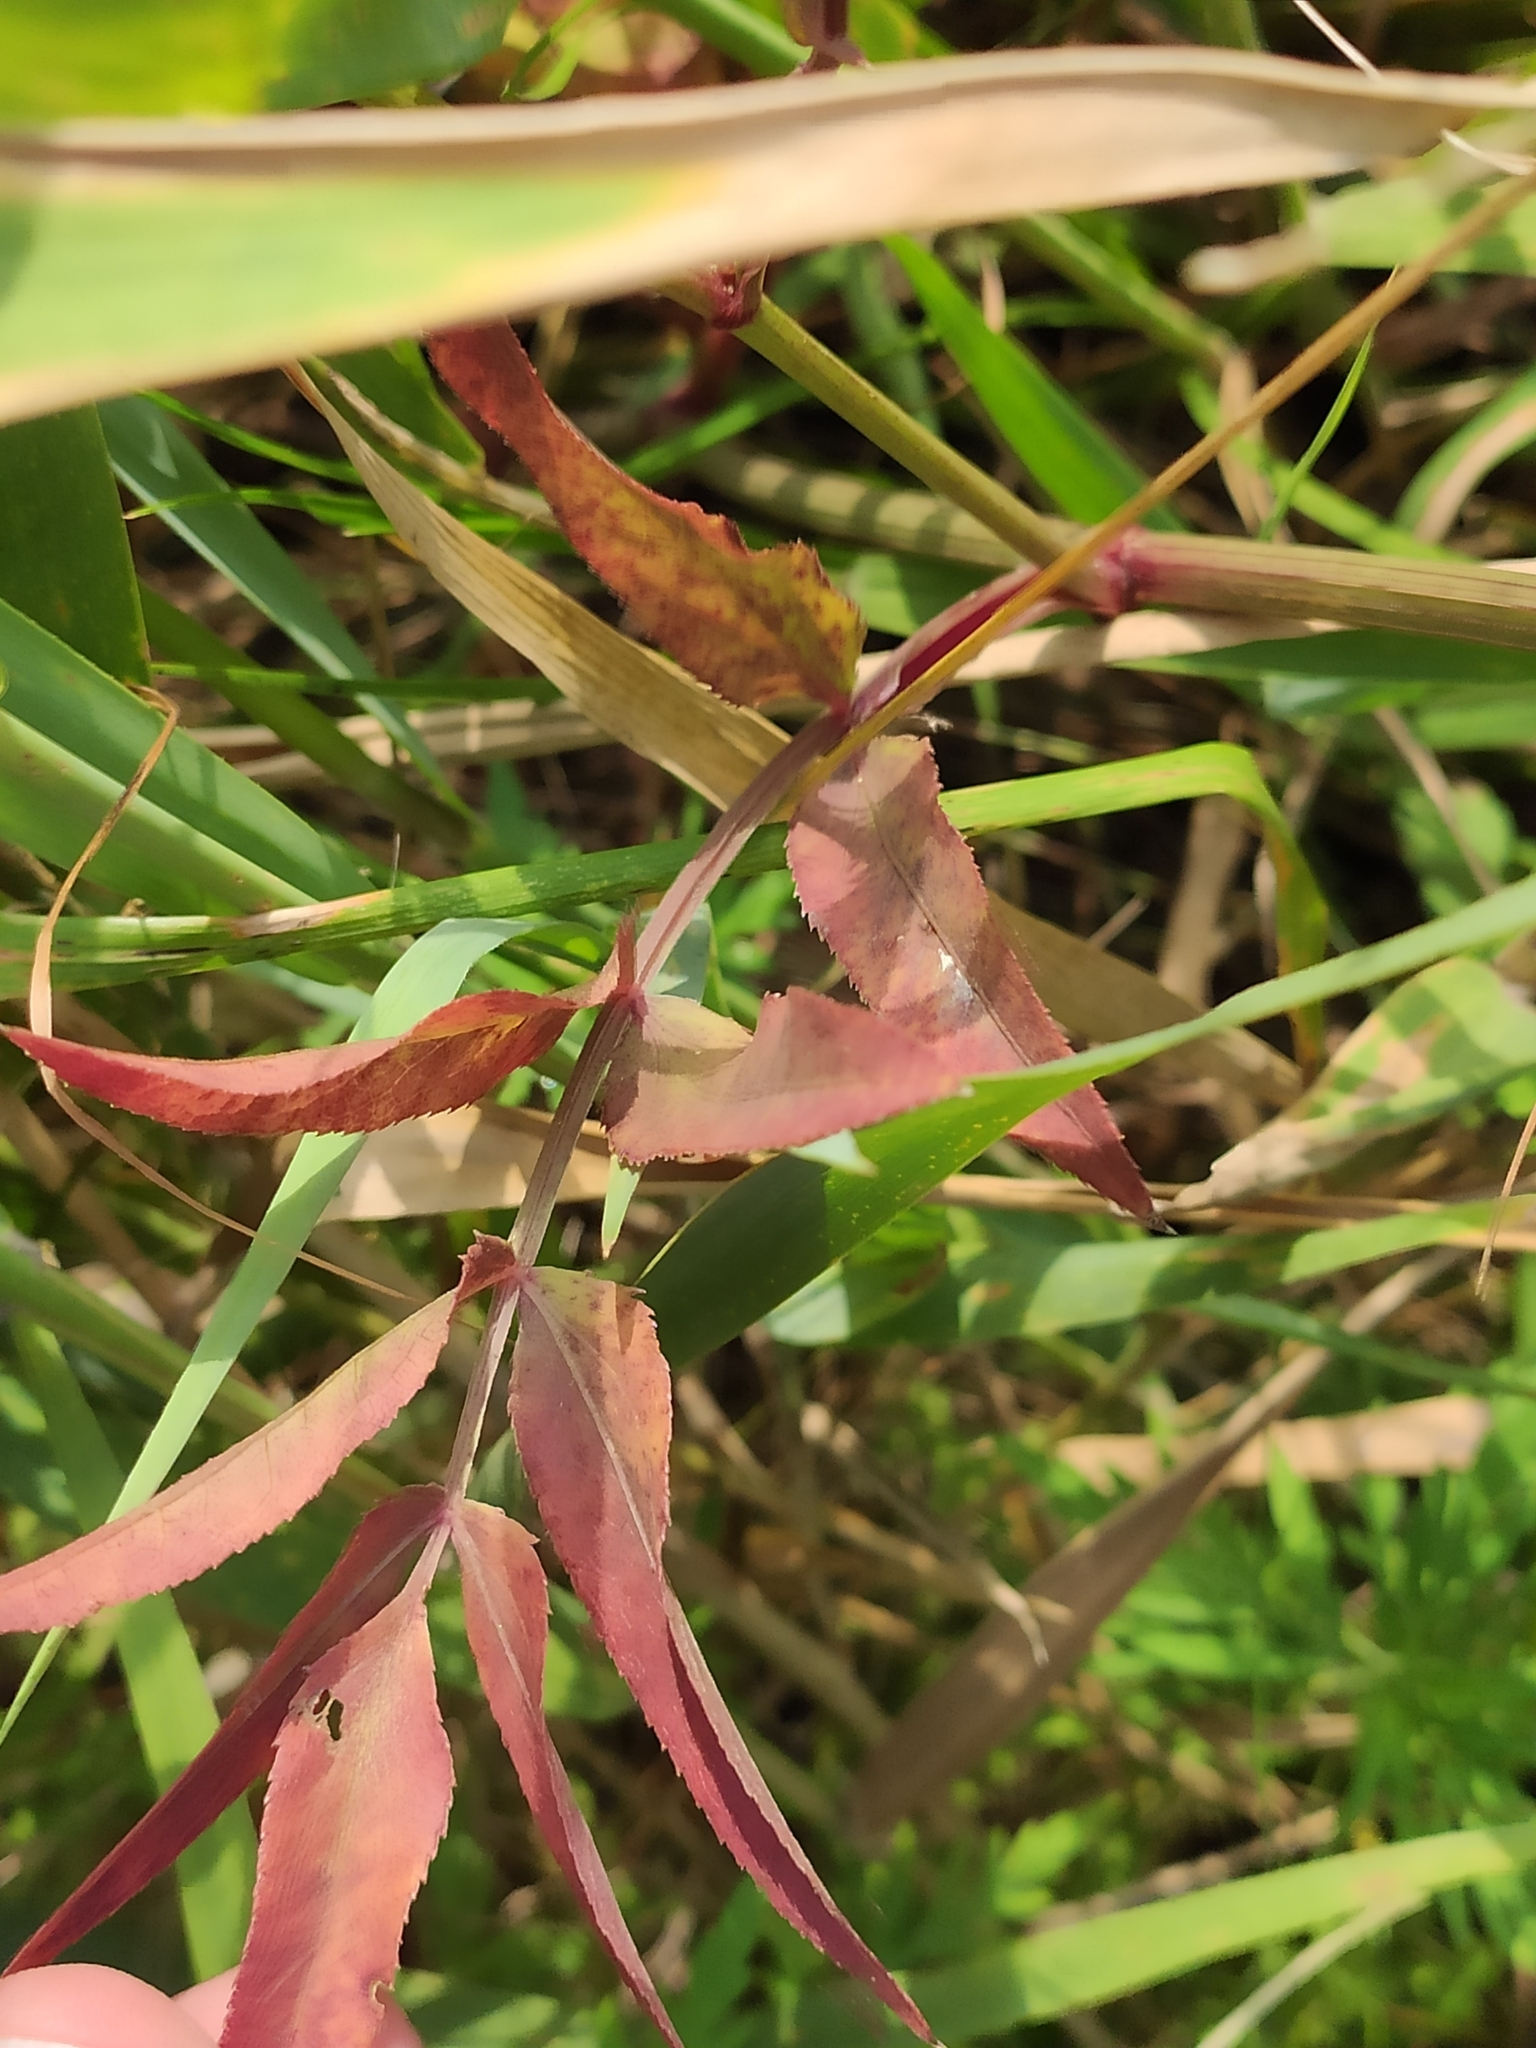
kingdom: Plantae
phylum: Tracheophyta
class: Magnoliopsida
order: Apiales
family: Apiaceae
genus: Sium
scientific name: Sium sisarum
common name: Skirret
